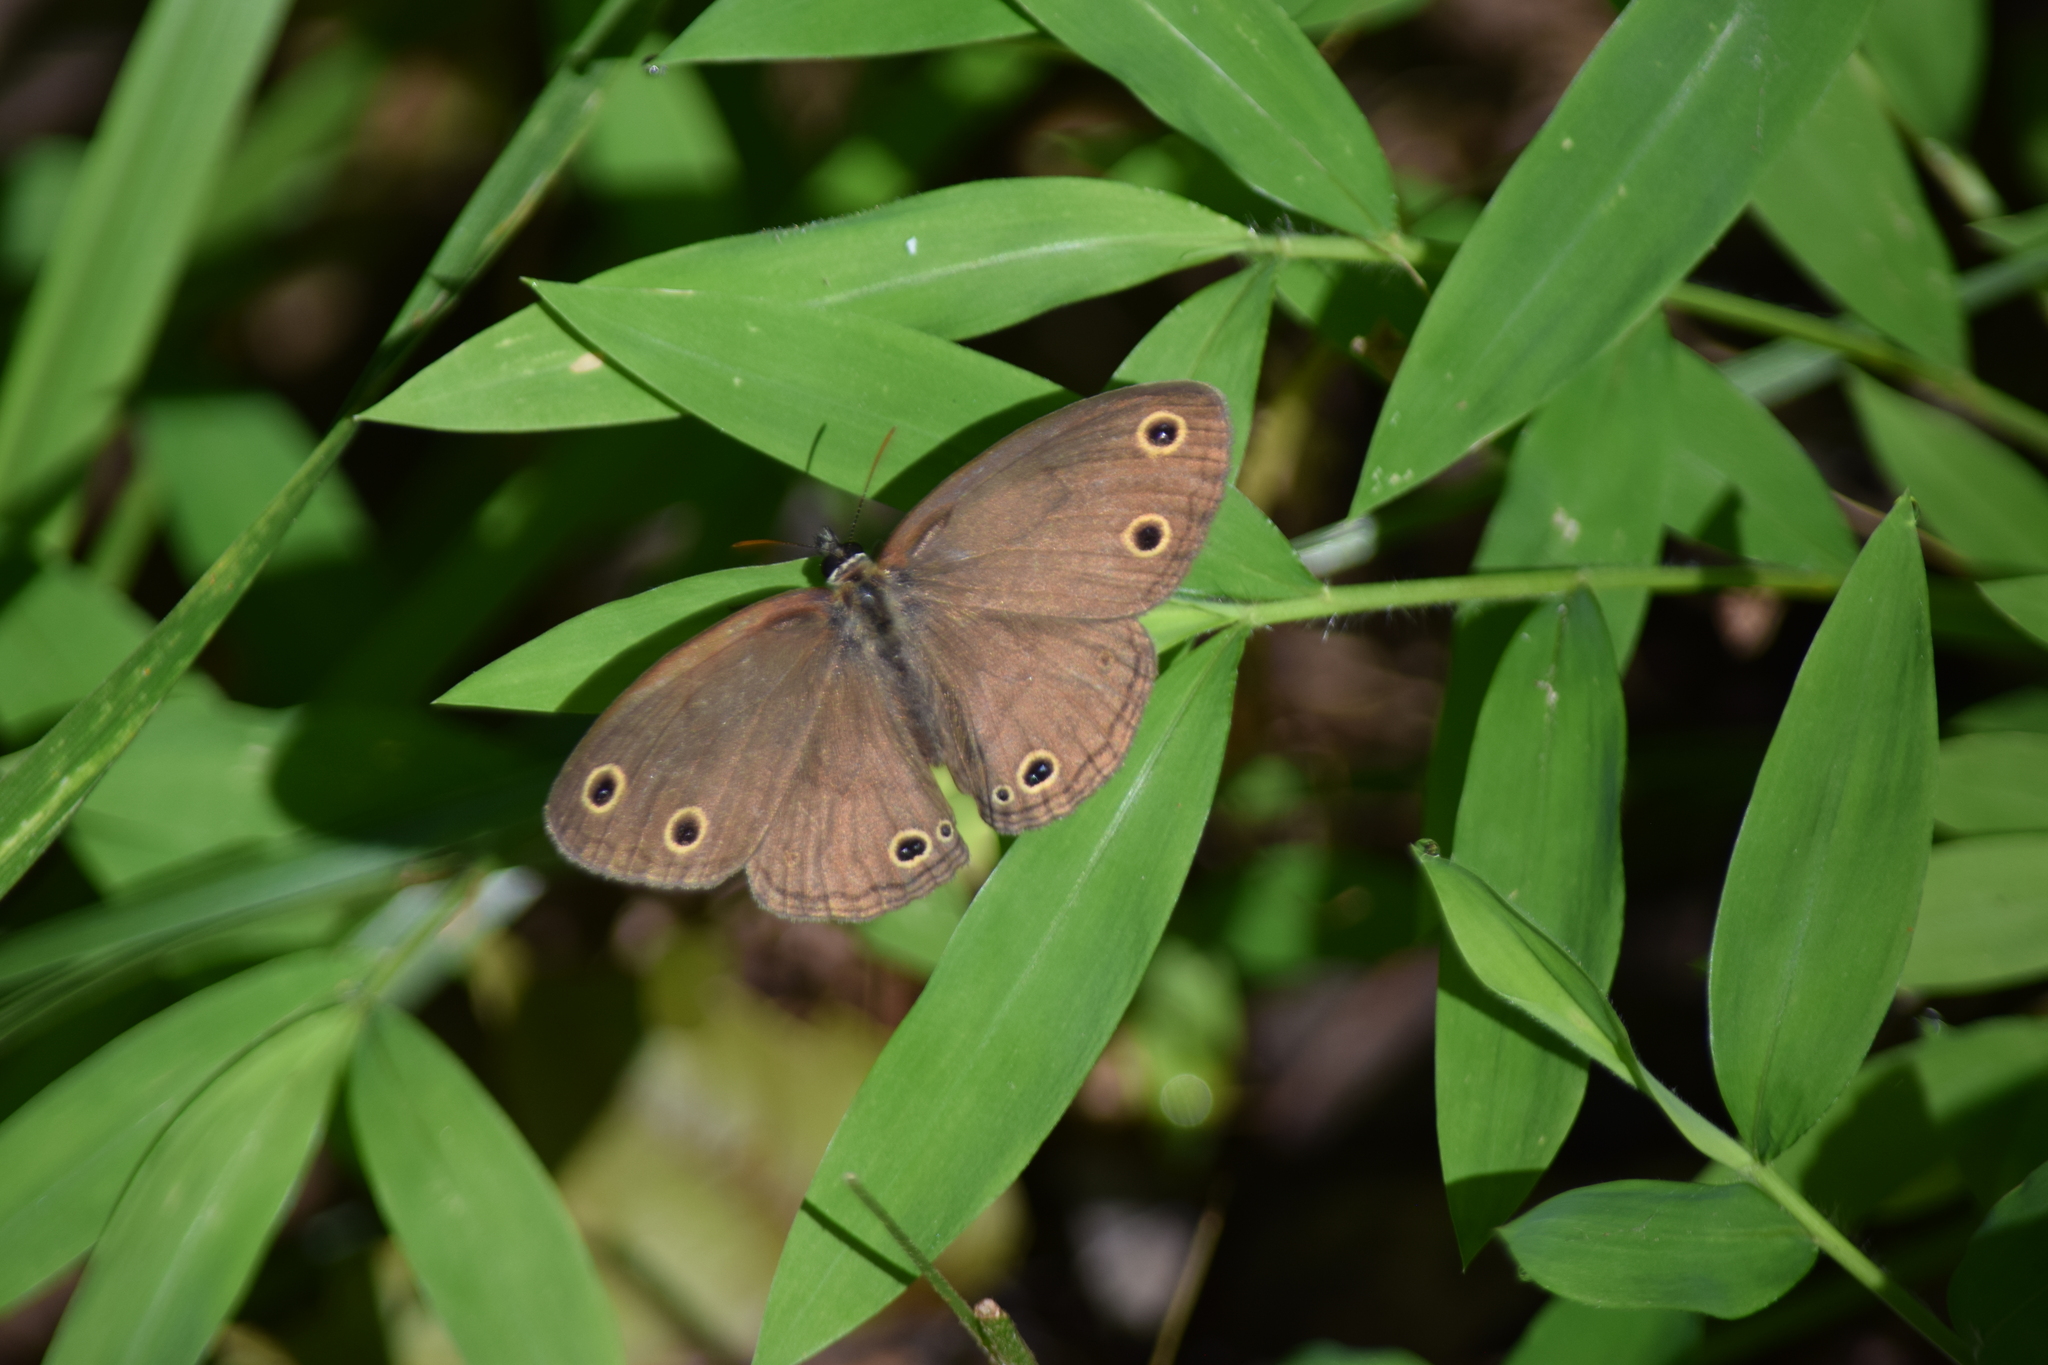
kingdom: Animalia
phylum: Arthropoda
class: Insecta
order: Lepidoptera
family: Nymphalidae
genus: Euptychia
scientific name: Euptychia cymela
